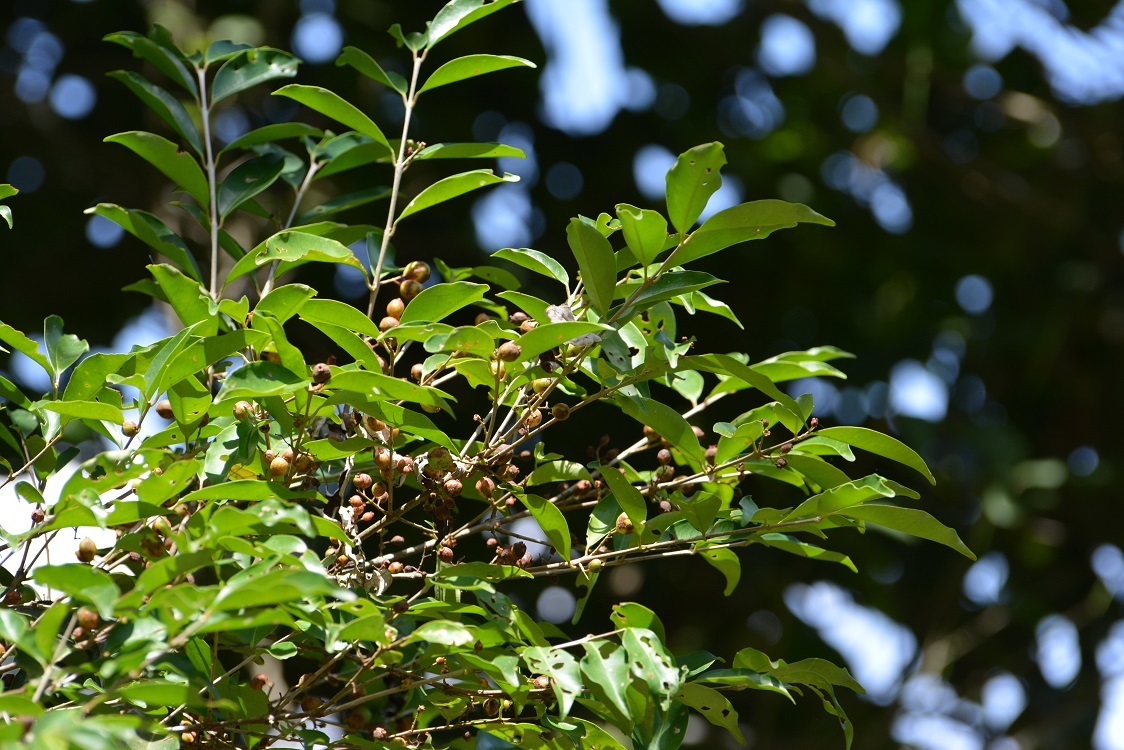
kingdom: Plantae
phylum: Tracheophyta
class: Magnoliopsida
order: Myrtales
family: Myrtaceae
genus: Eugenia
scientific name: Eugenia acapulcensis
